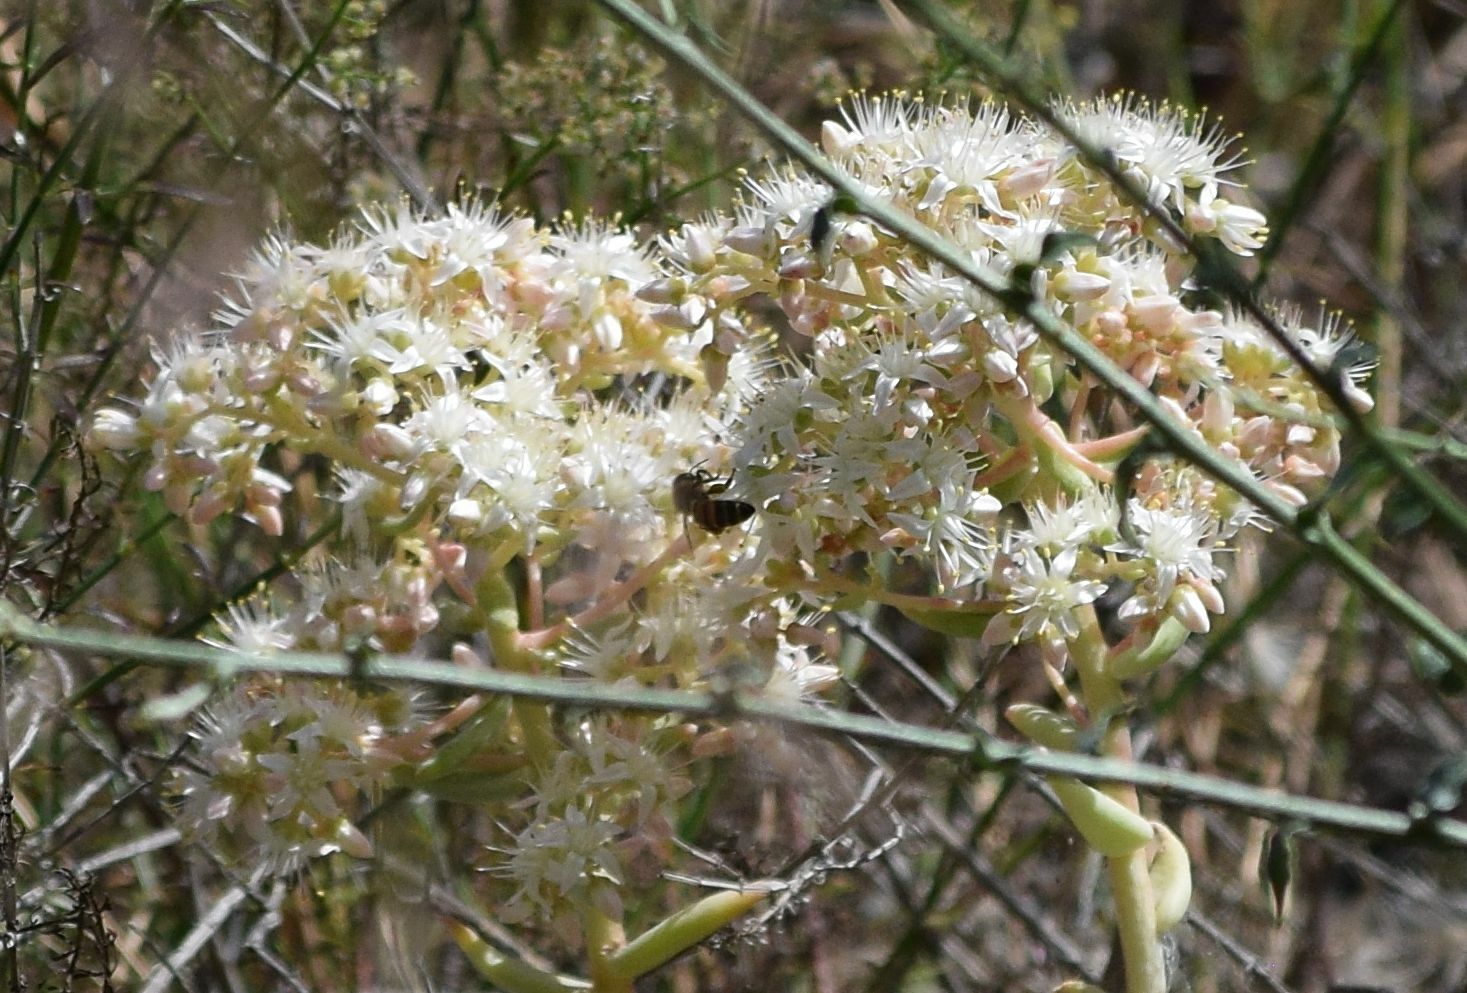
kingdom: Animalia
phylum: Arthropoda
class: Insecta
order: Hymenoptera
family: Apidae
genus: Apis
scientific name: Apis mellifera
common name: Honey bee
